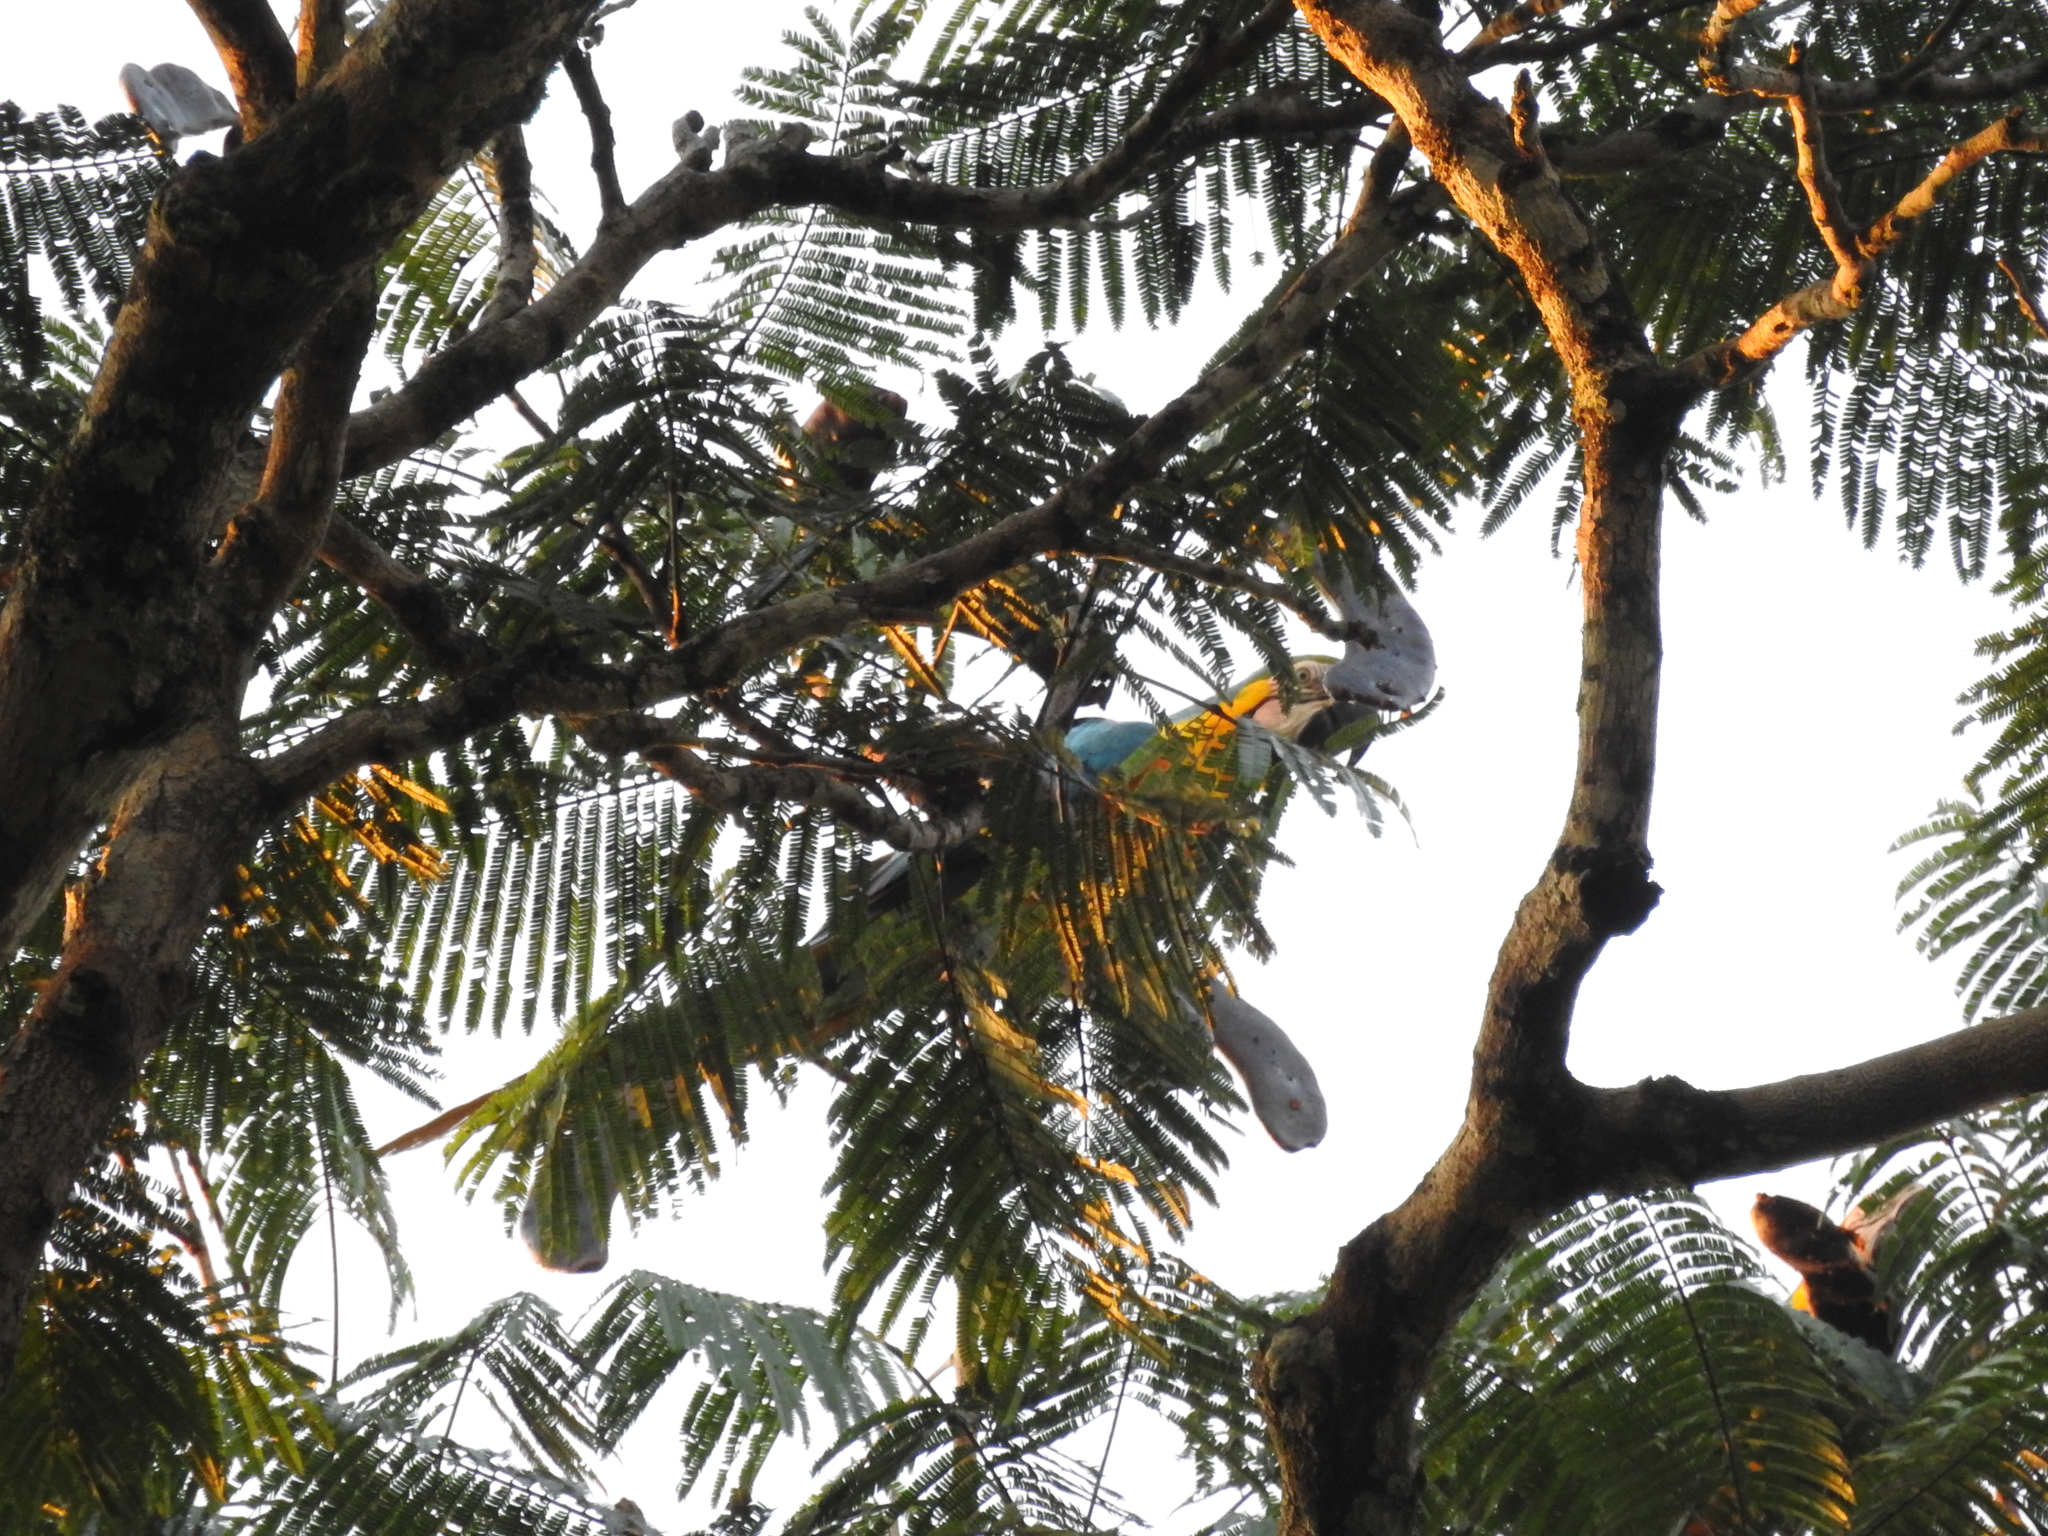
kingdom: Animalia
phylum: Chordata
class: Aves
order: Psittaciformes
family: Psittacidae
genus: Ara
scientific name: Ara ararauna
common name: Blue-and-yellow macaw
